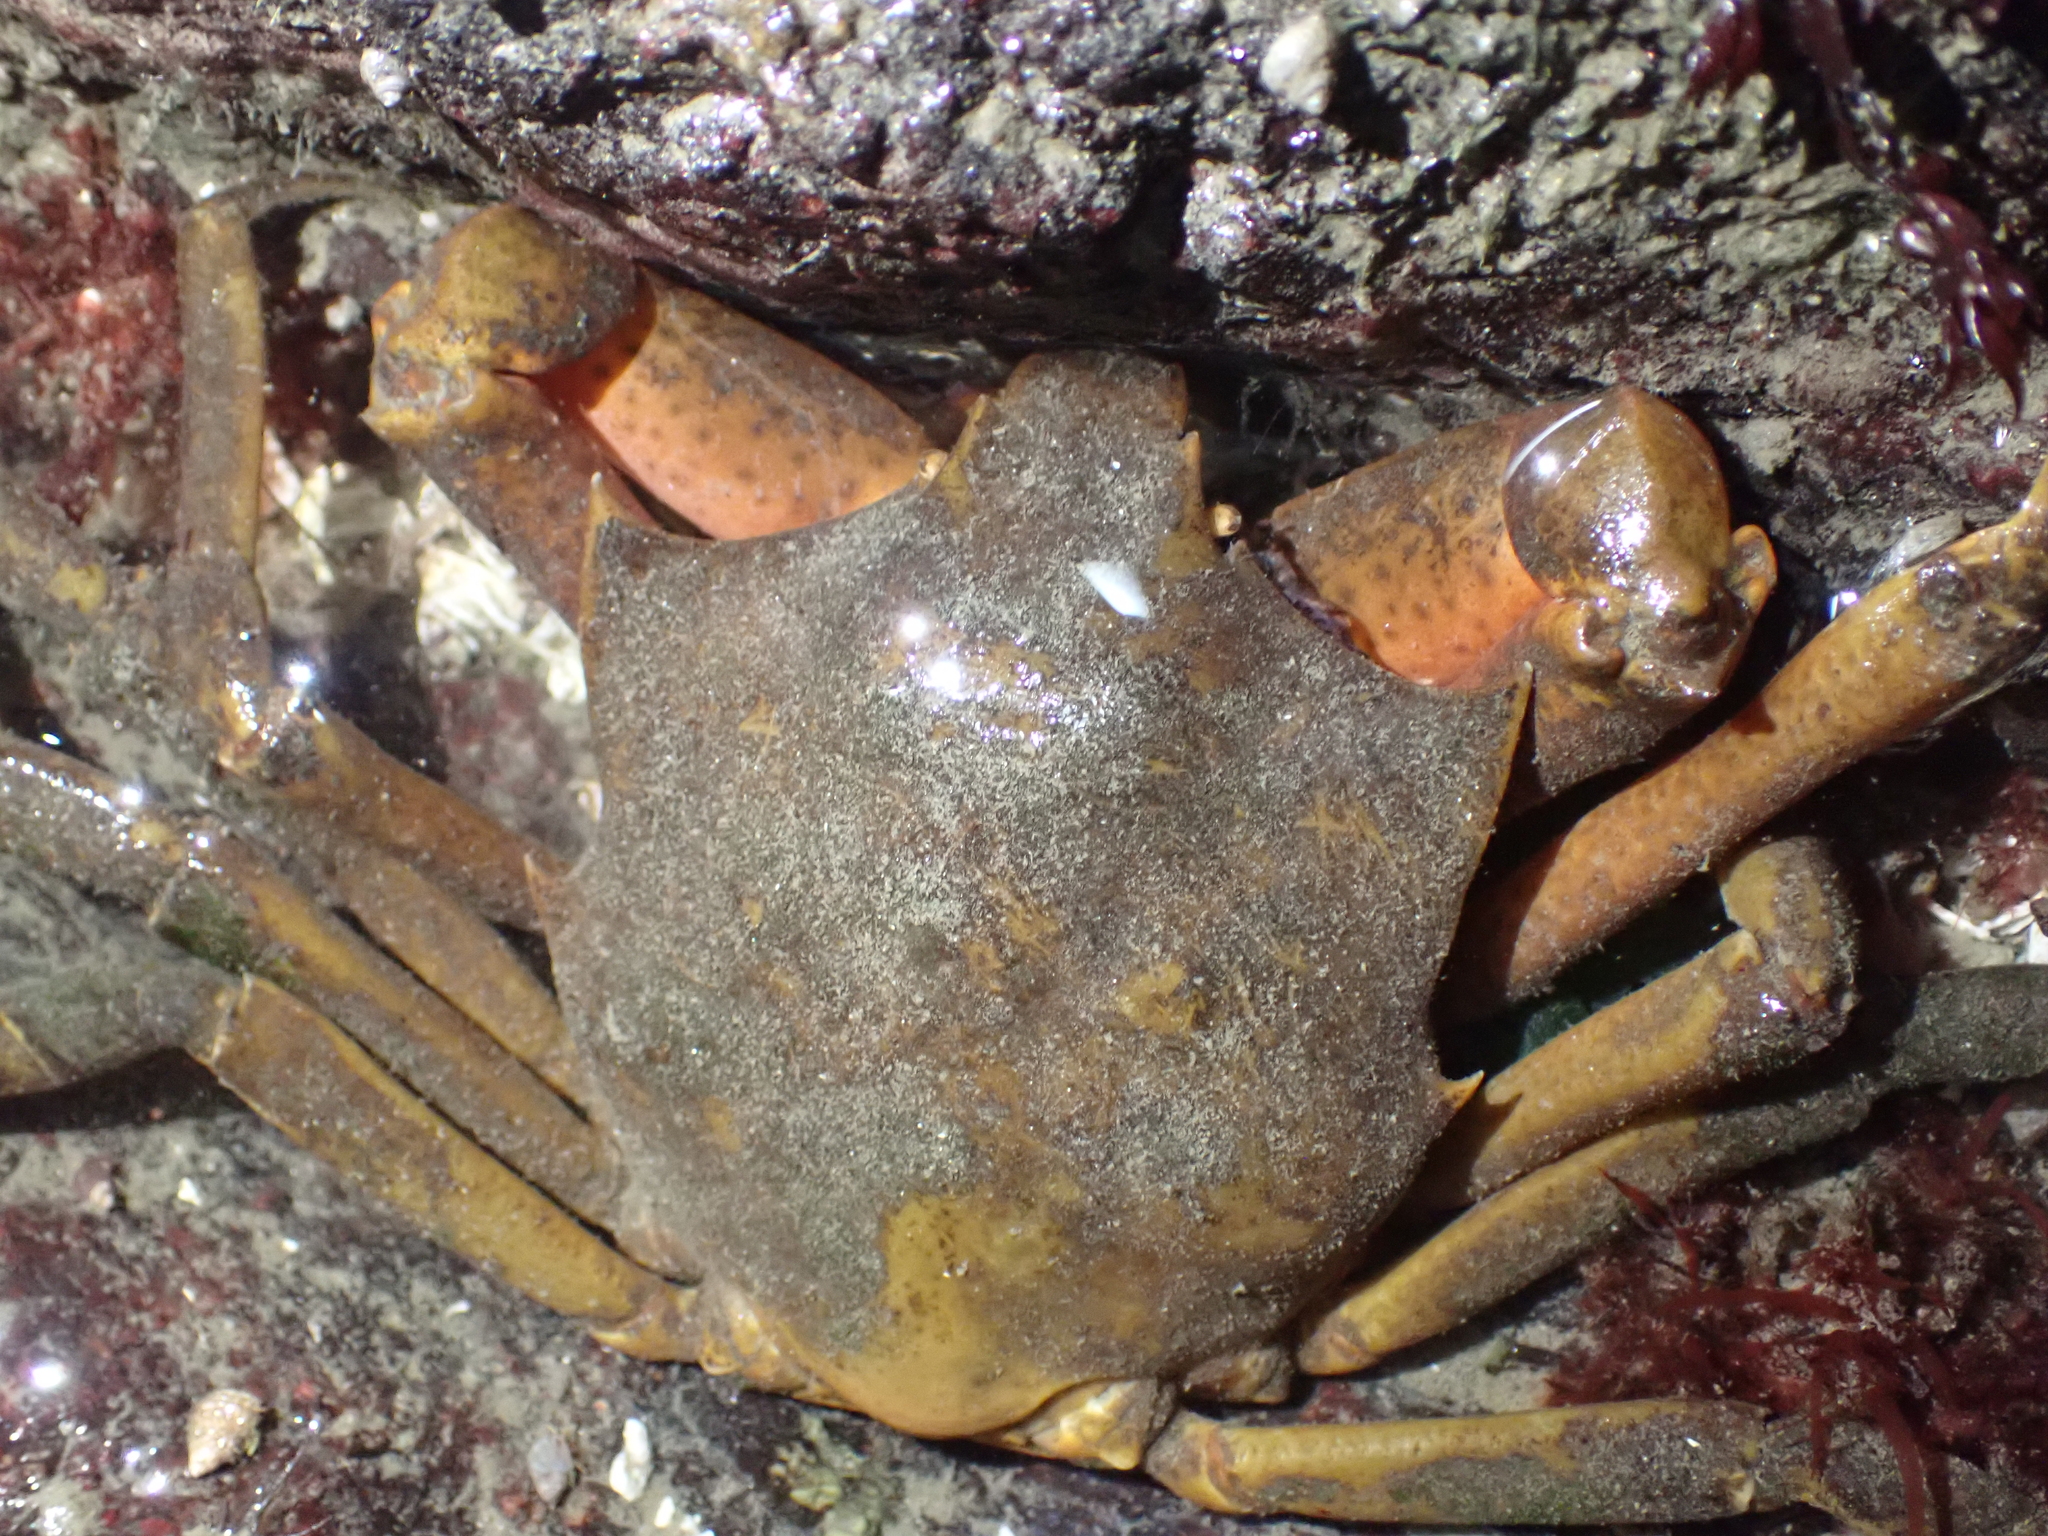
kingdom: Animalia
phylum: Arthropoda
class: Malacostraca
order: Decapoda
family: Epialtidae
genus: Pugettia
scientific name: Pugettia producta
